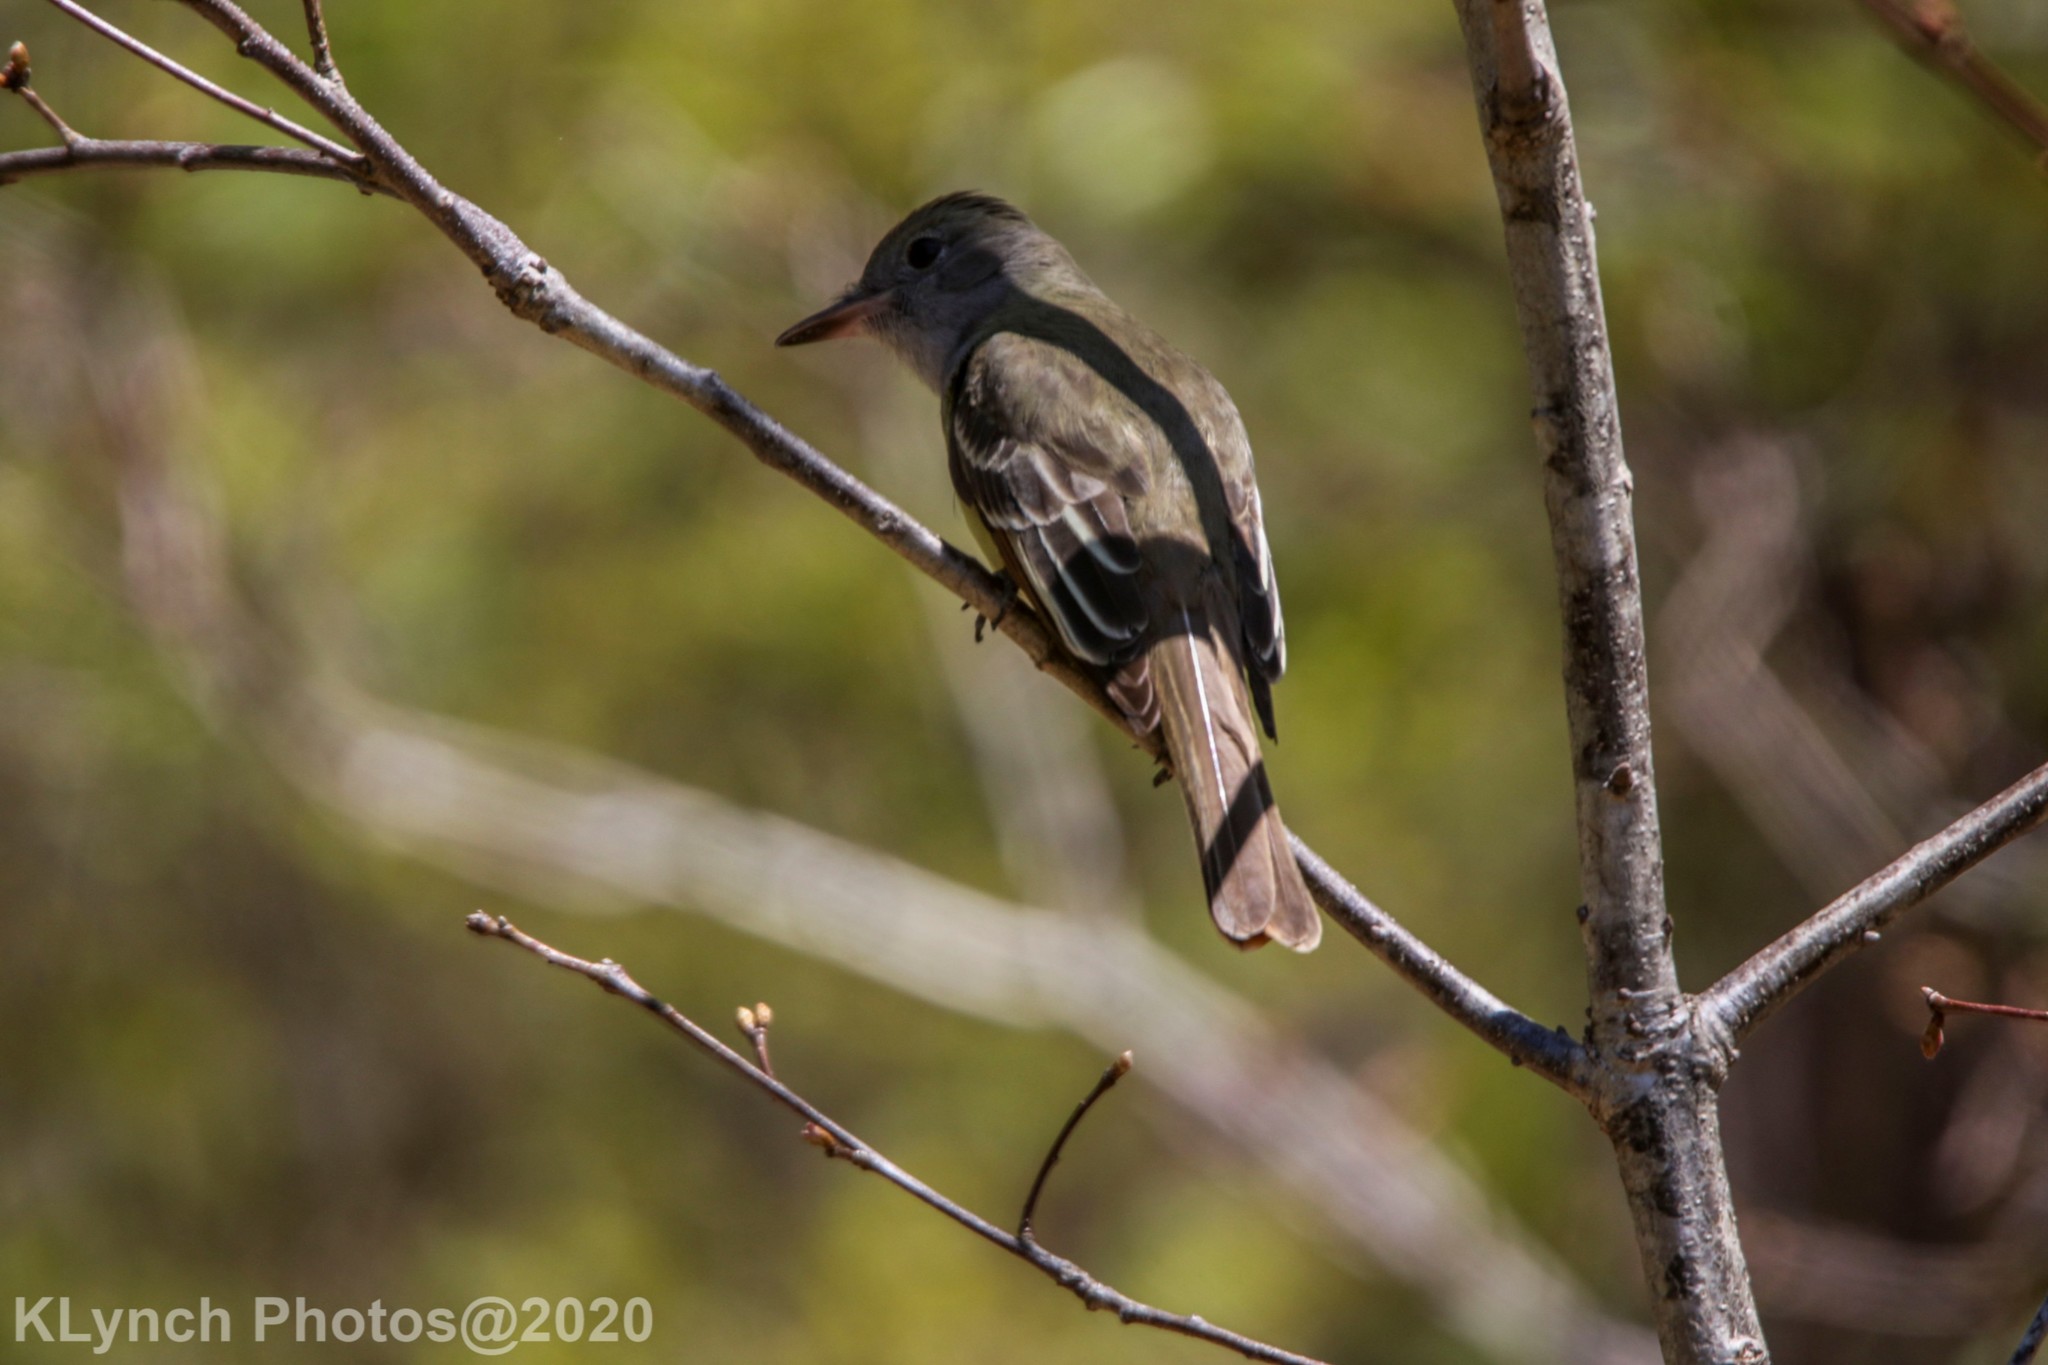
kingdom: Animalia
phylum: Chordata
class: Aves
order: Passeriformes
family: Tyrannidae
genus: Myiarchus
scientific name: Myiarchus crinitus
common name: Great crested flycatcher
